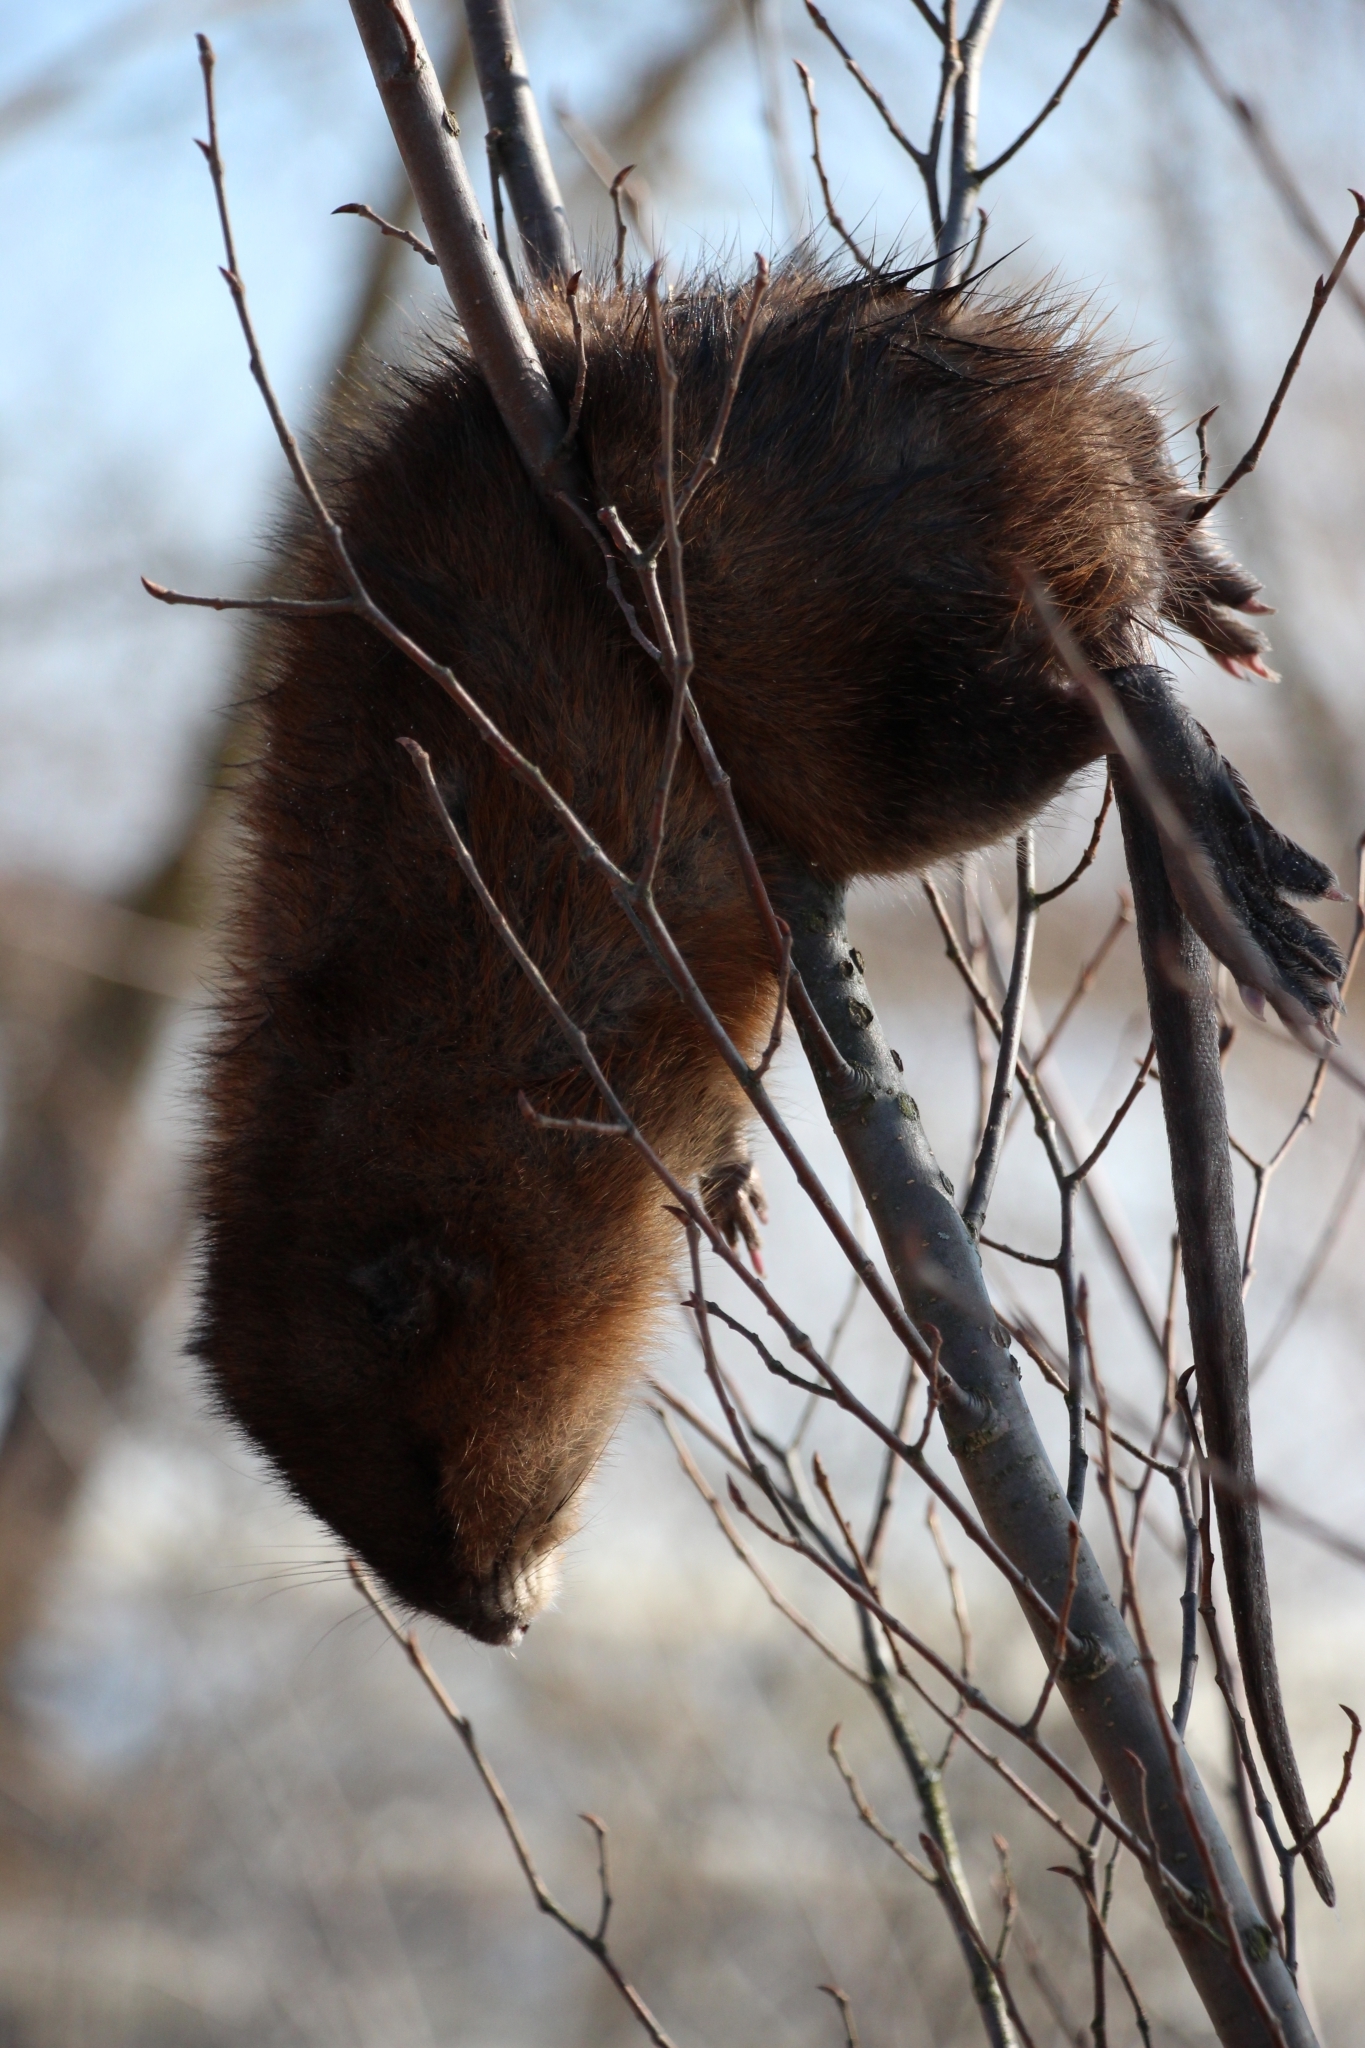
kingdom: Animalia
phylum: Chordata
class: Mammalia
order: Rodentia
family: Cricetidae
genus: Ondatra
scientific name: Ondatra zibethicus
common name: Muskrat
